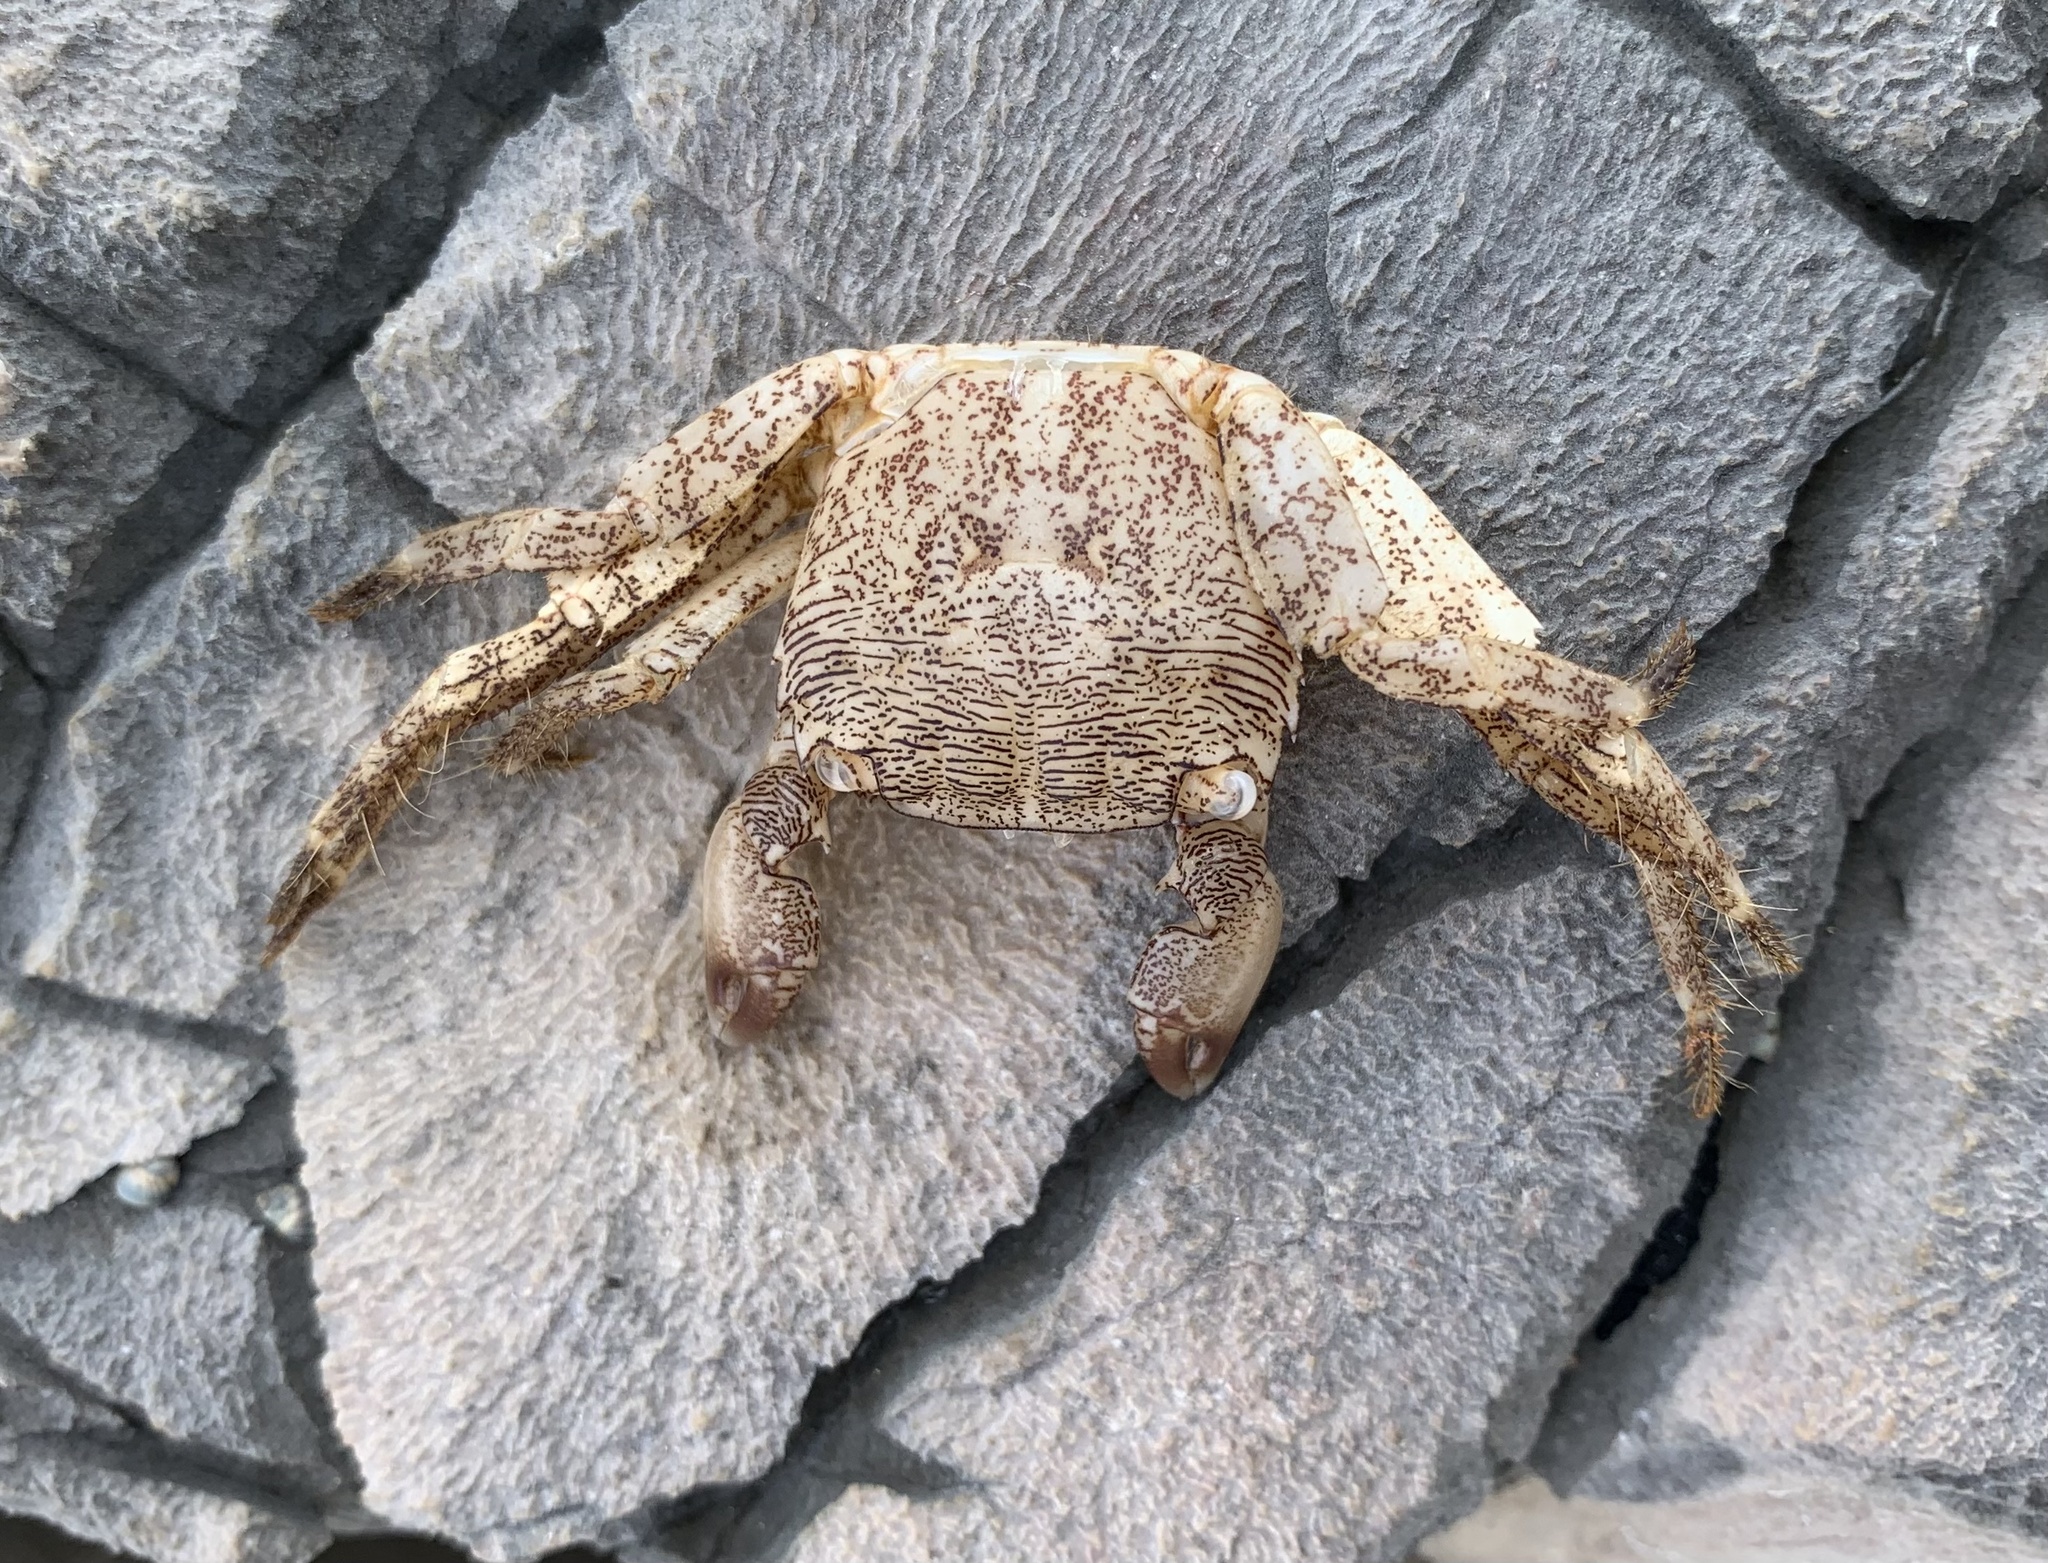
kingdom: Animalia
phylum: Arthropoda
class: Malacostraca
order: Decapoda
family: Grapsidae
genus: Pachygrapsus
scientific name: Pachygrapsus marmoratus
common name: Marbled rock crab
